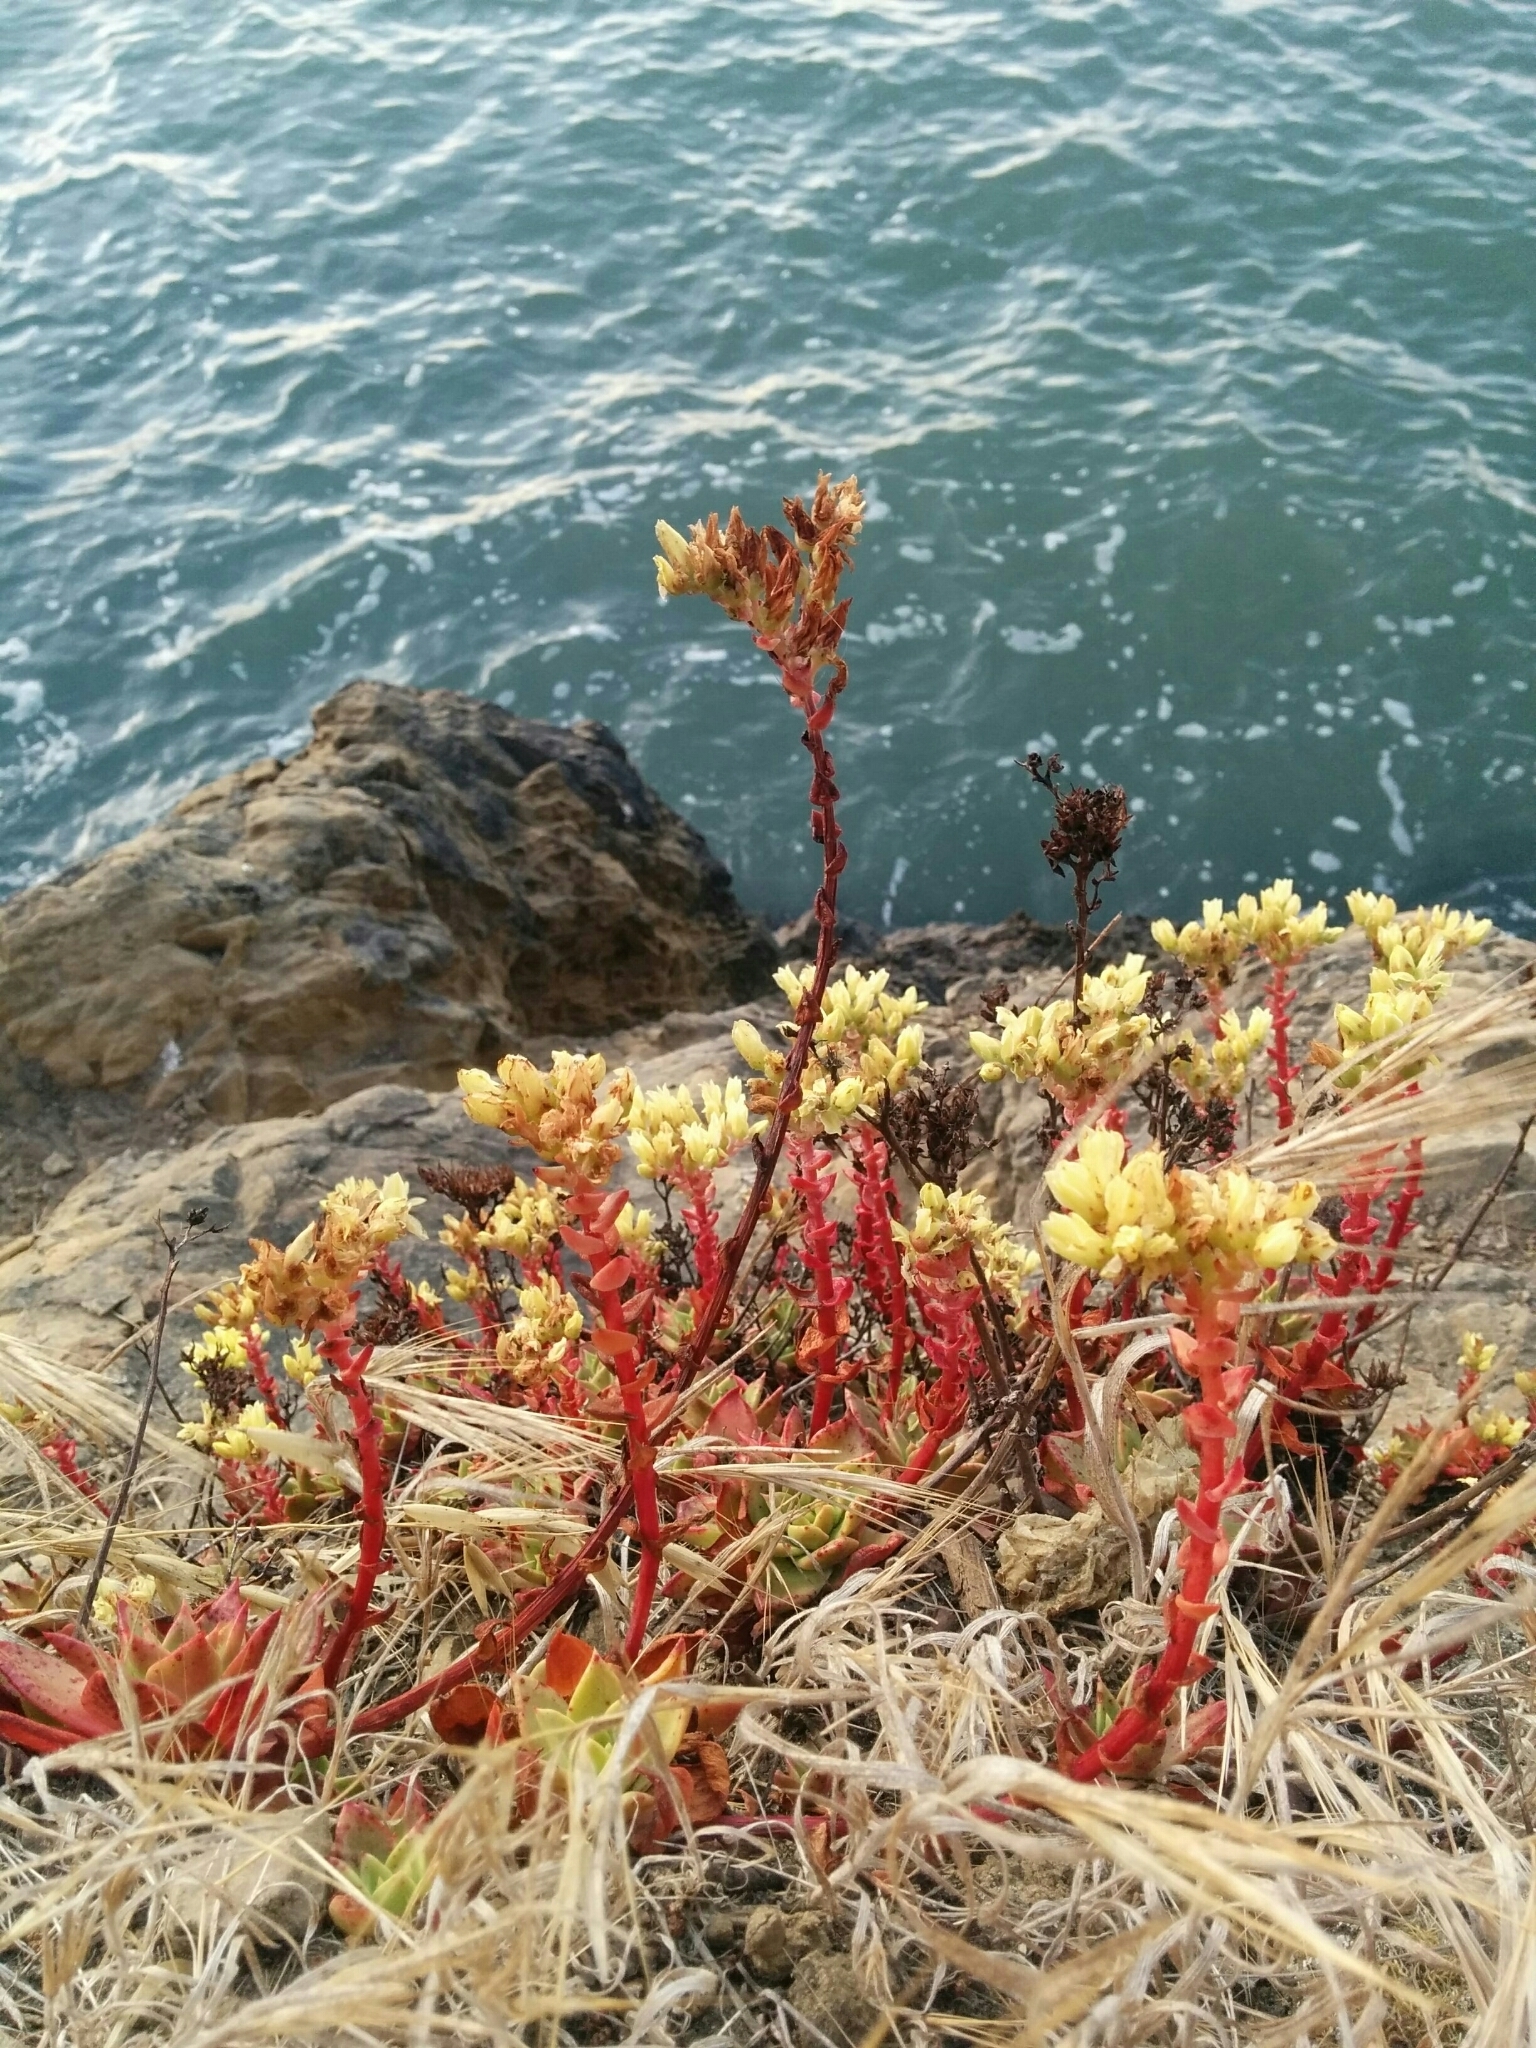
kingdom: Plantae
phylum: Tracheophyta
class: Magnoliopsida
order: Saxifragales
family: Crassulaceae
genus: Dudleya
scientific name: Dudleya farinosa
